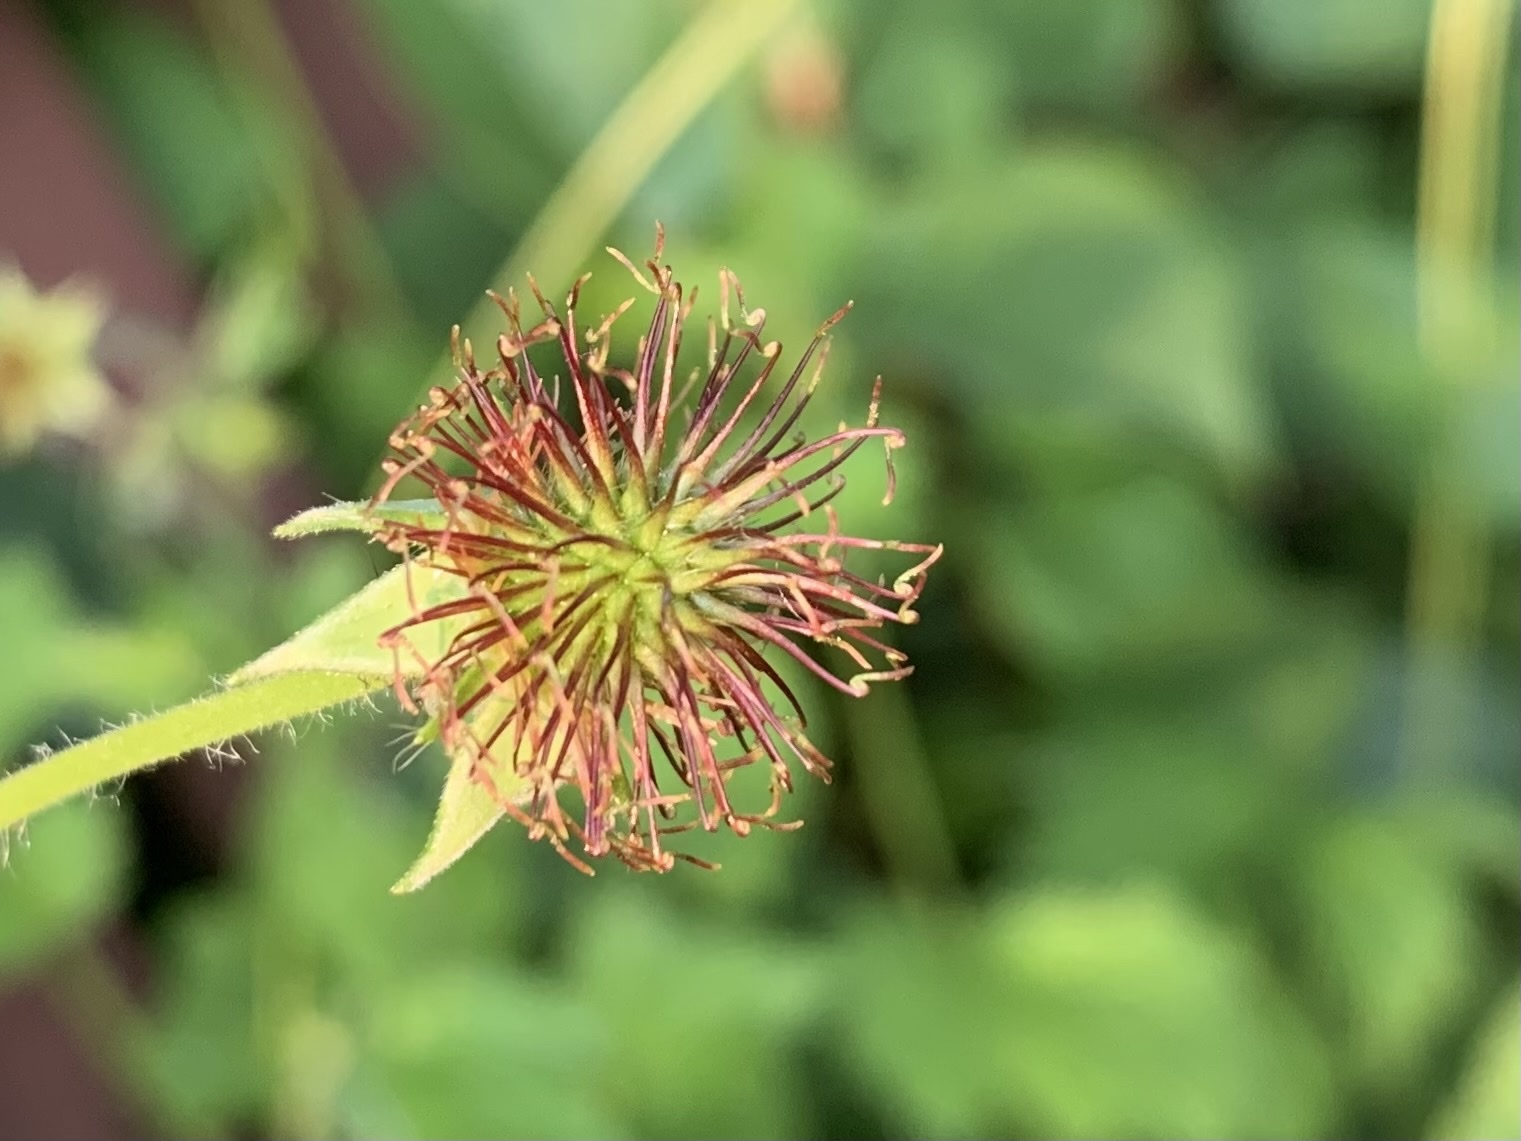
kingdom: Plantae
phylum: Tracheophyta
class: Magnoliopsida
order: Rosales
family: Rosaceae
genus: Geum
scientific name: Geum urbanum
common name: Wood avens
